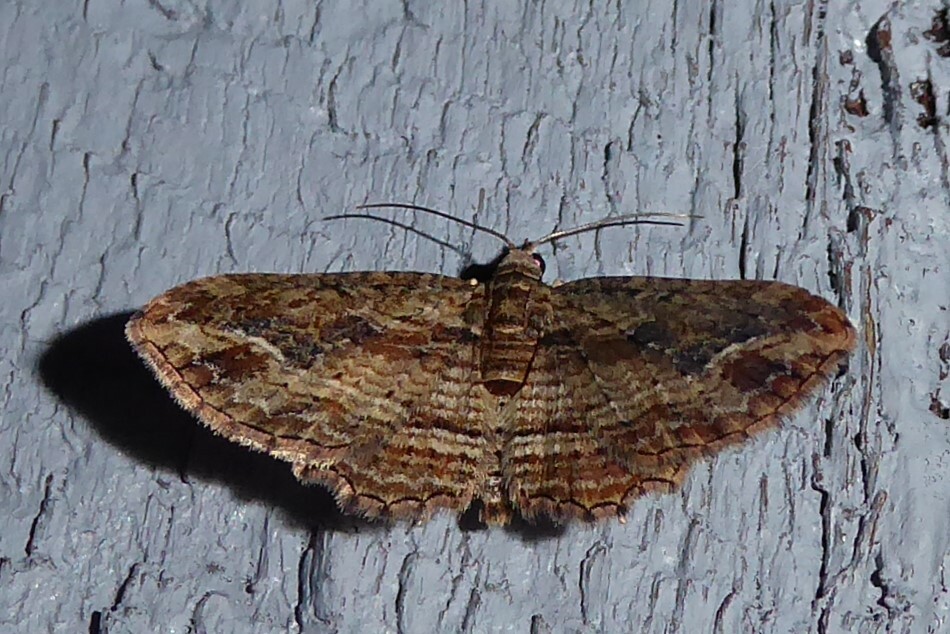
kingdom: Animalia
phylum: Arthropoda
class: Insecta
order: Lepidoptera
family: Geometridae
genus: Chloroclystis
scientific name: Chloroclystis filata
